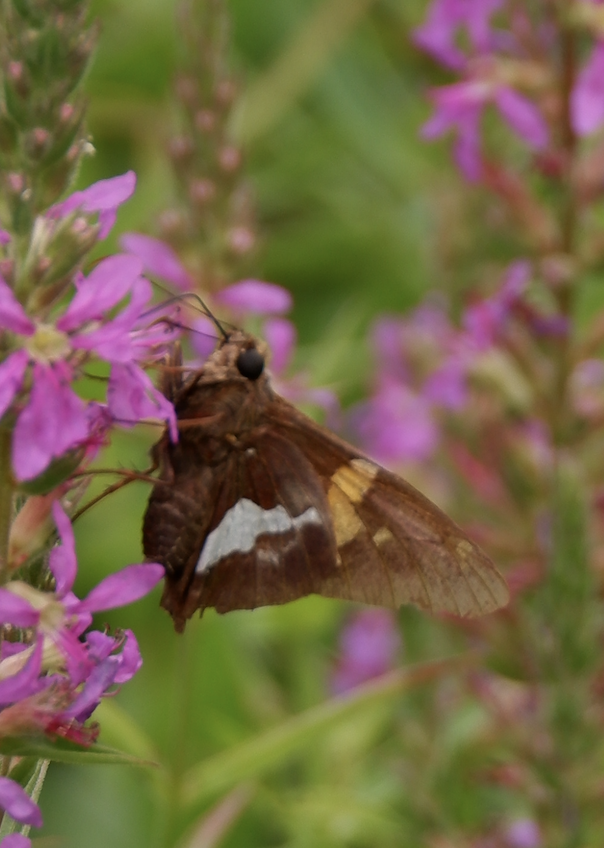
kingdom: Animalia
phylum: Arthropoda
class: Insecta
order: Lepidoptera
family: Hesperiidae
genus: Epargyreus
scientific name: Epargyreus clarus
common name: Silver-spotted skipper
